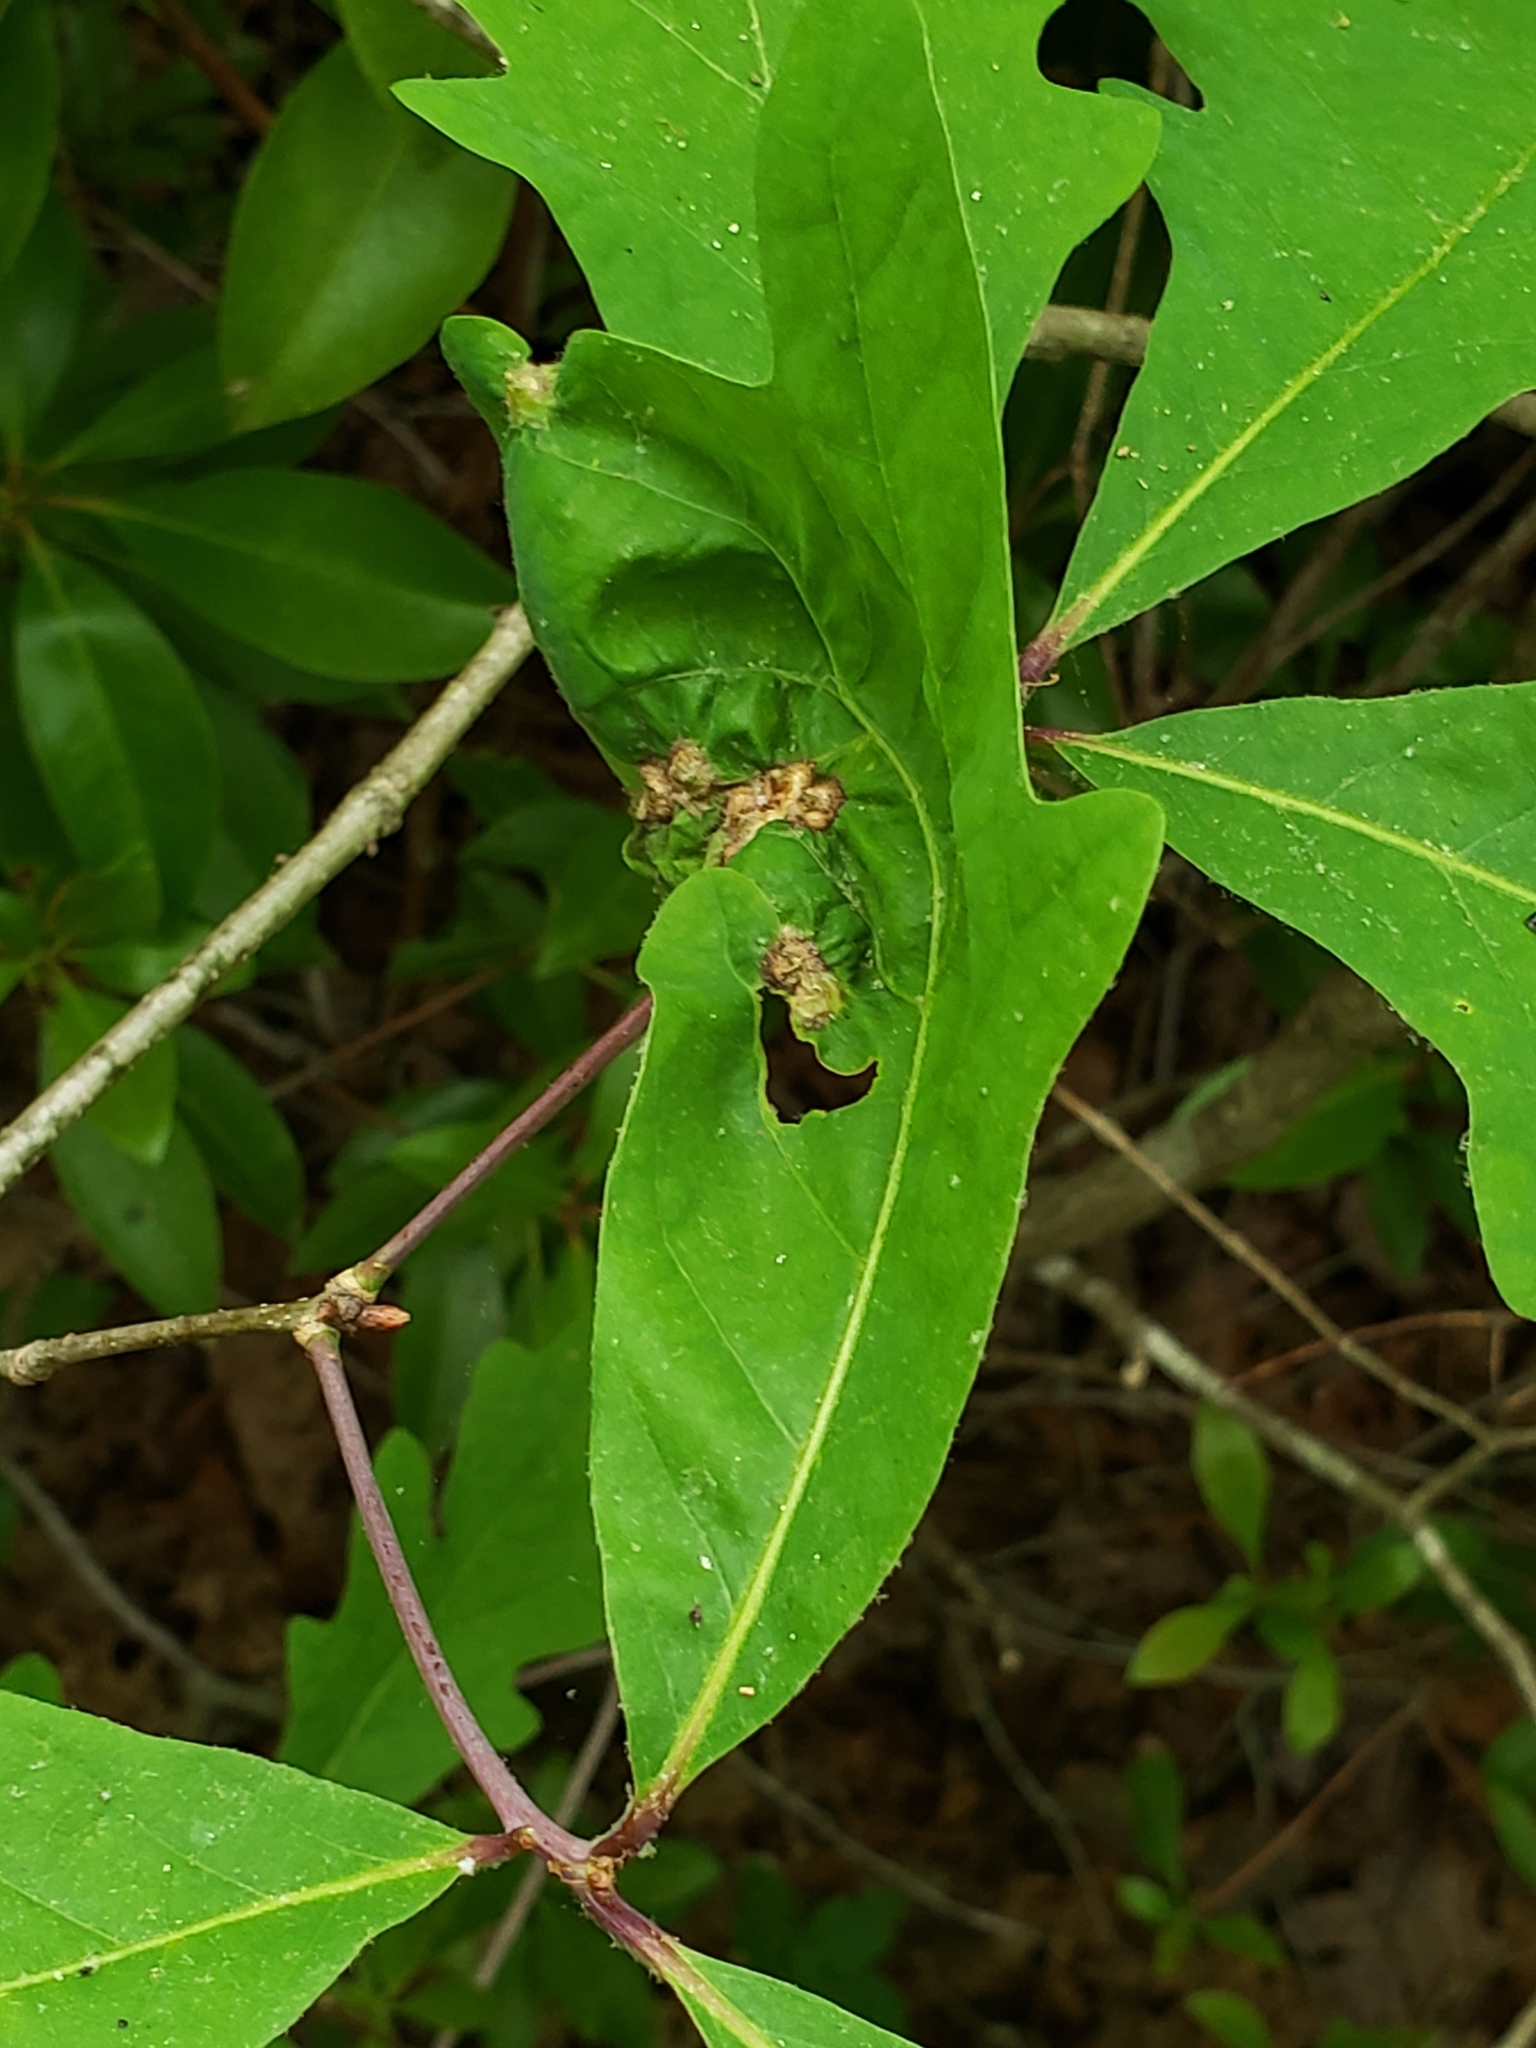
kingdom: Animalia
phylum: Arthropoda
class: Insecta
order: Hemiptera
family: Phylloxeridae
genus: Phylloxera
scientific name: Phylloxera spinosa
